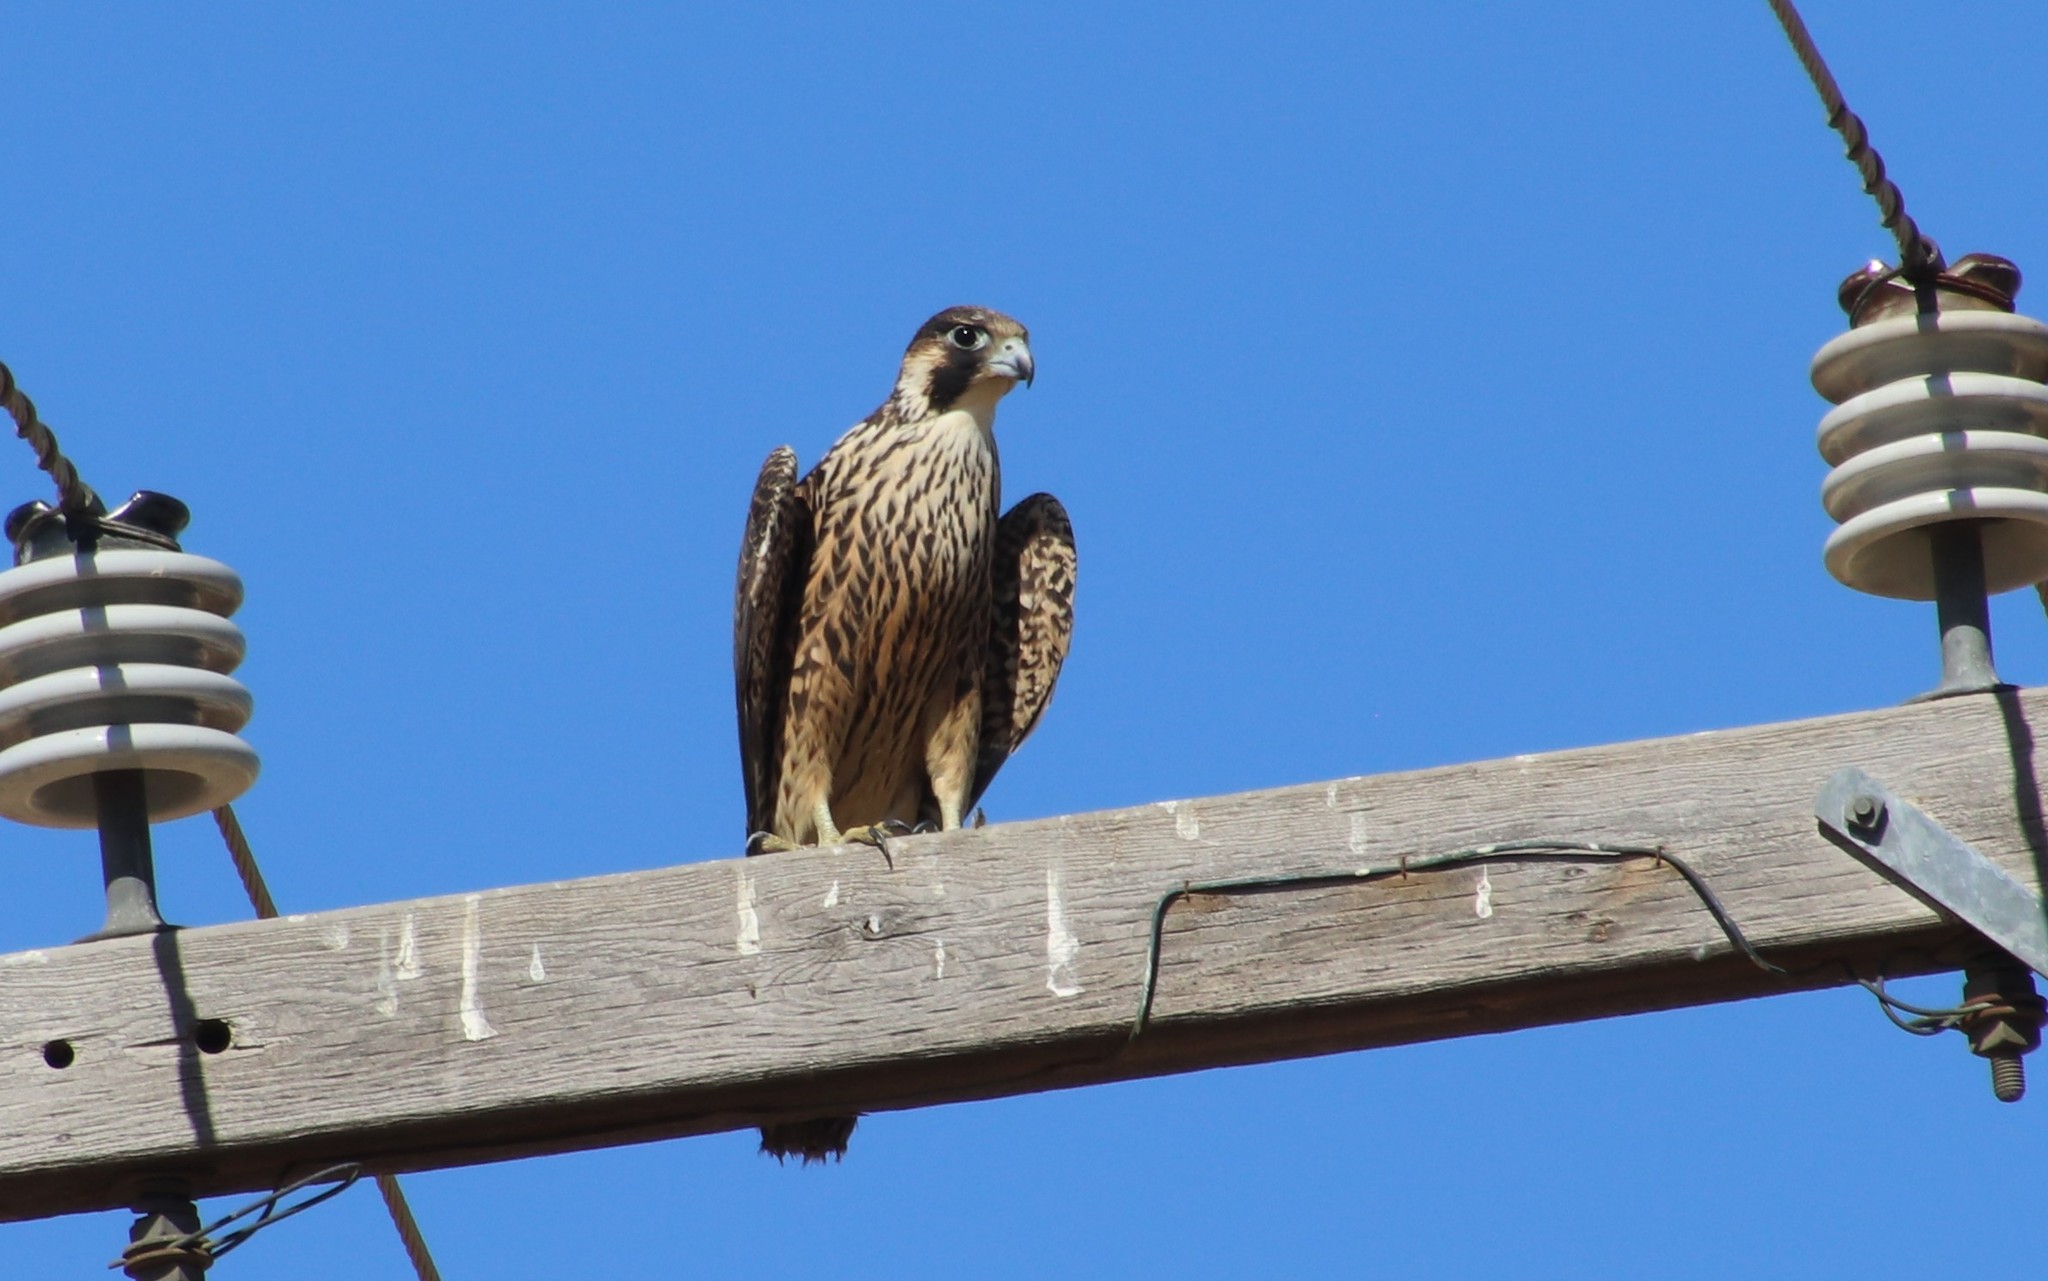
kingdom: Animalia
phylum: Chordata
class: Aves
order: Falconiformes
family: Falconidae
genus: Falco
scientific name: Falco peregrinus
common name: Peregrine falcon
